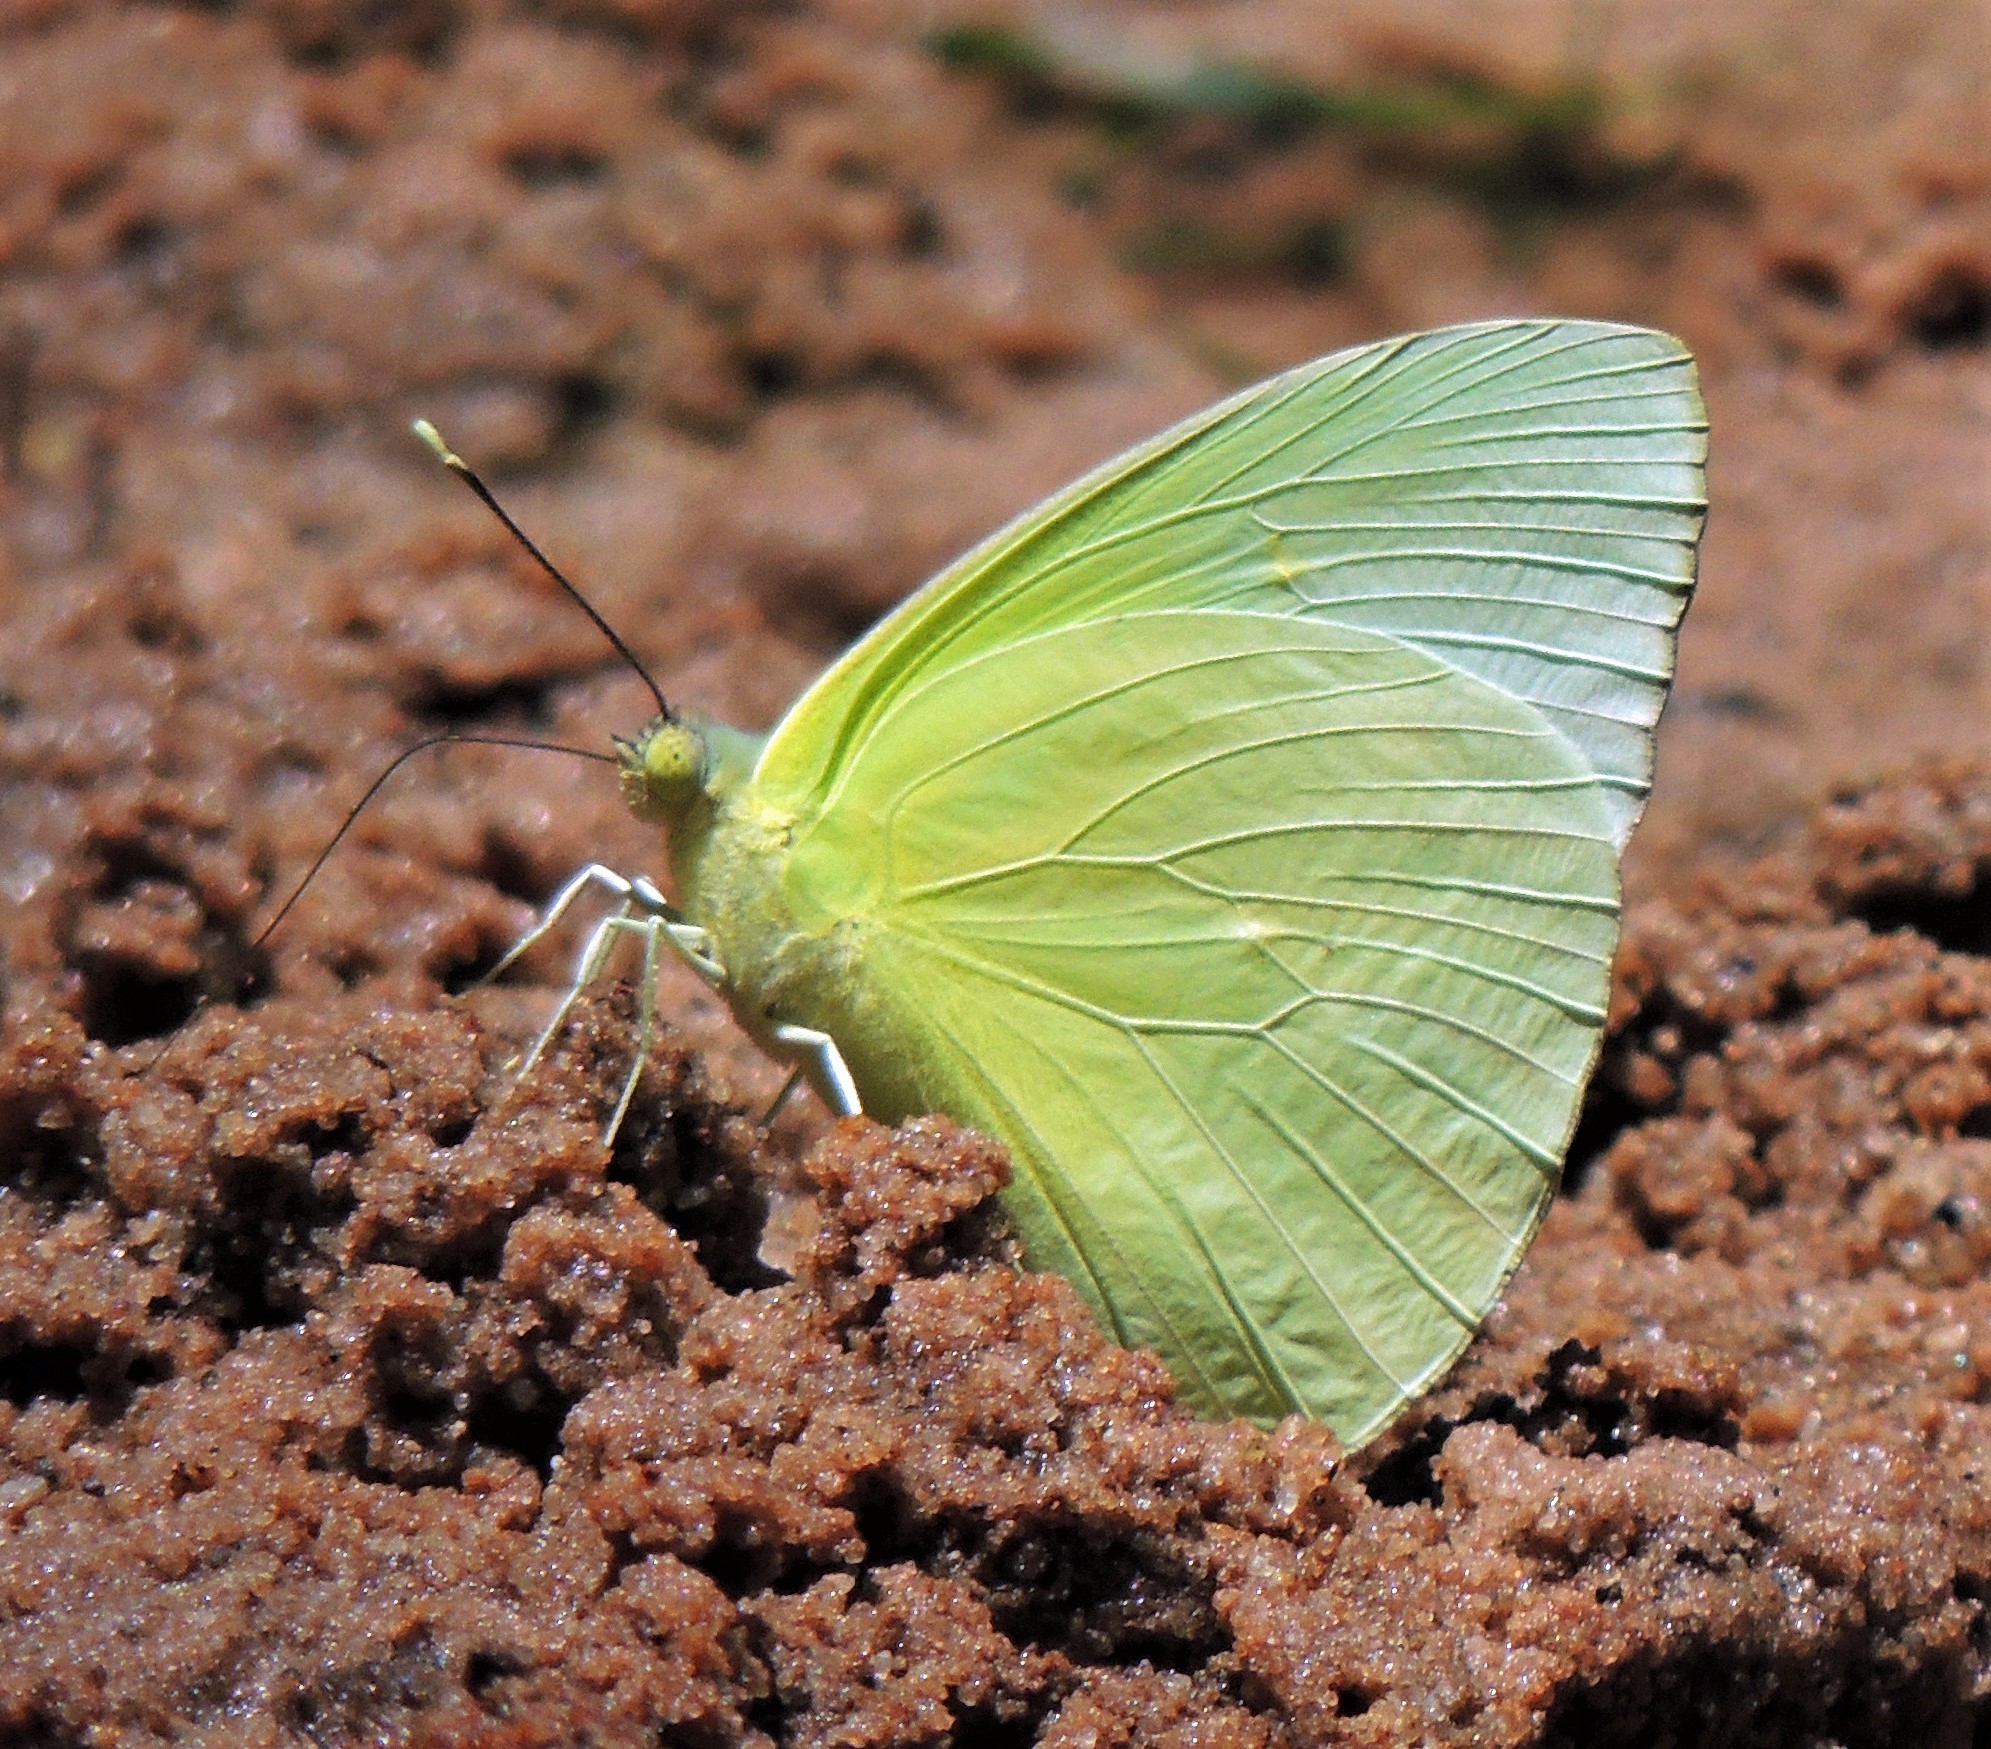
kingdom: Animalia
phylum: Arthropoda
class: Insecta
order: Lepidoptera
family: Pieridae
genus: Aphrissa
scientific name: Aphrissa statira
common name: Statira sulphur
